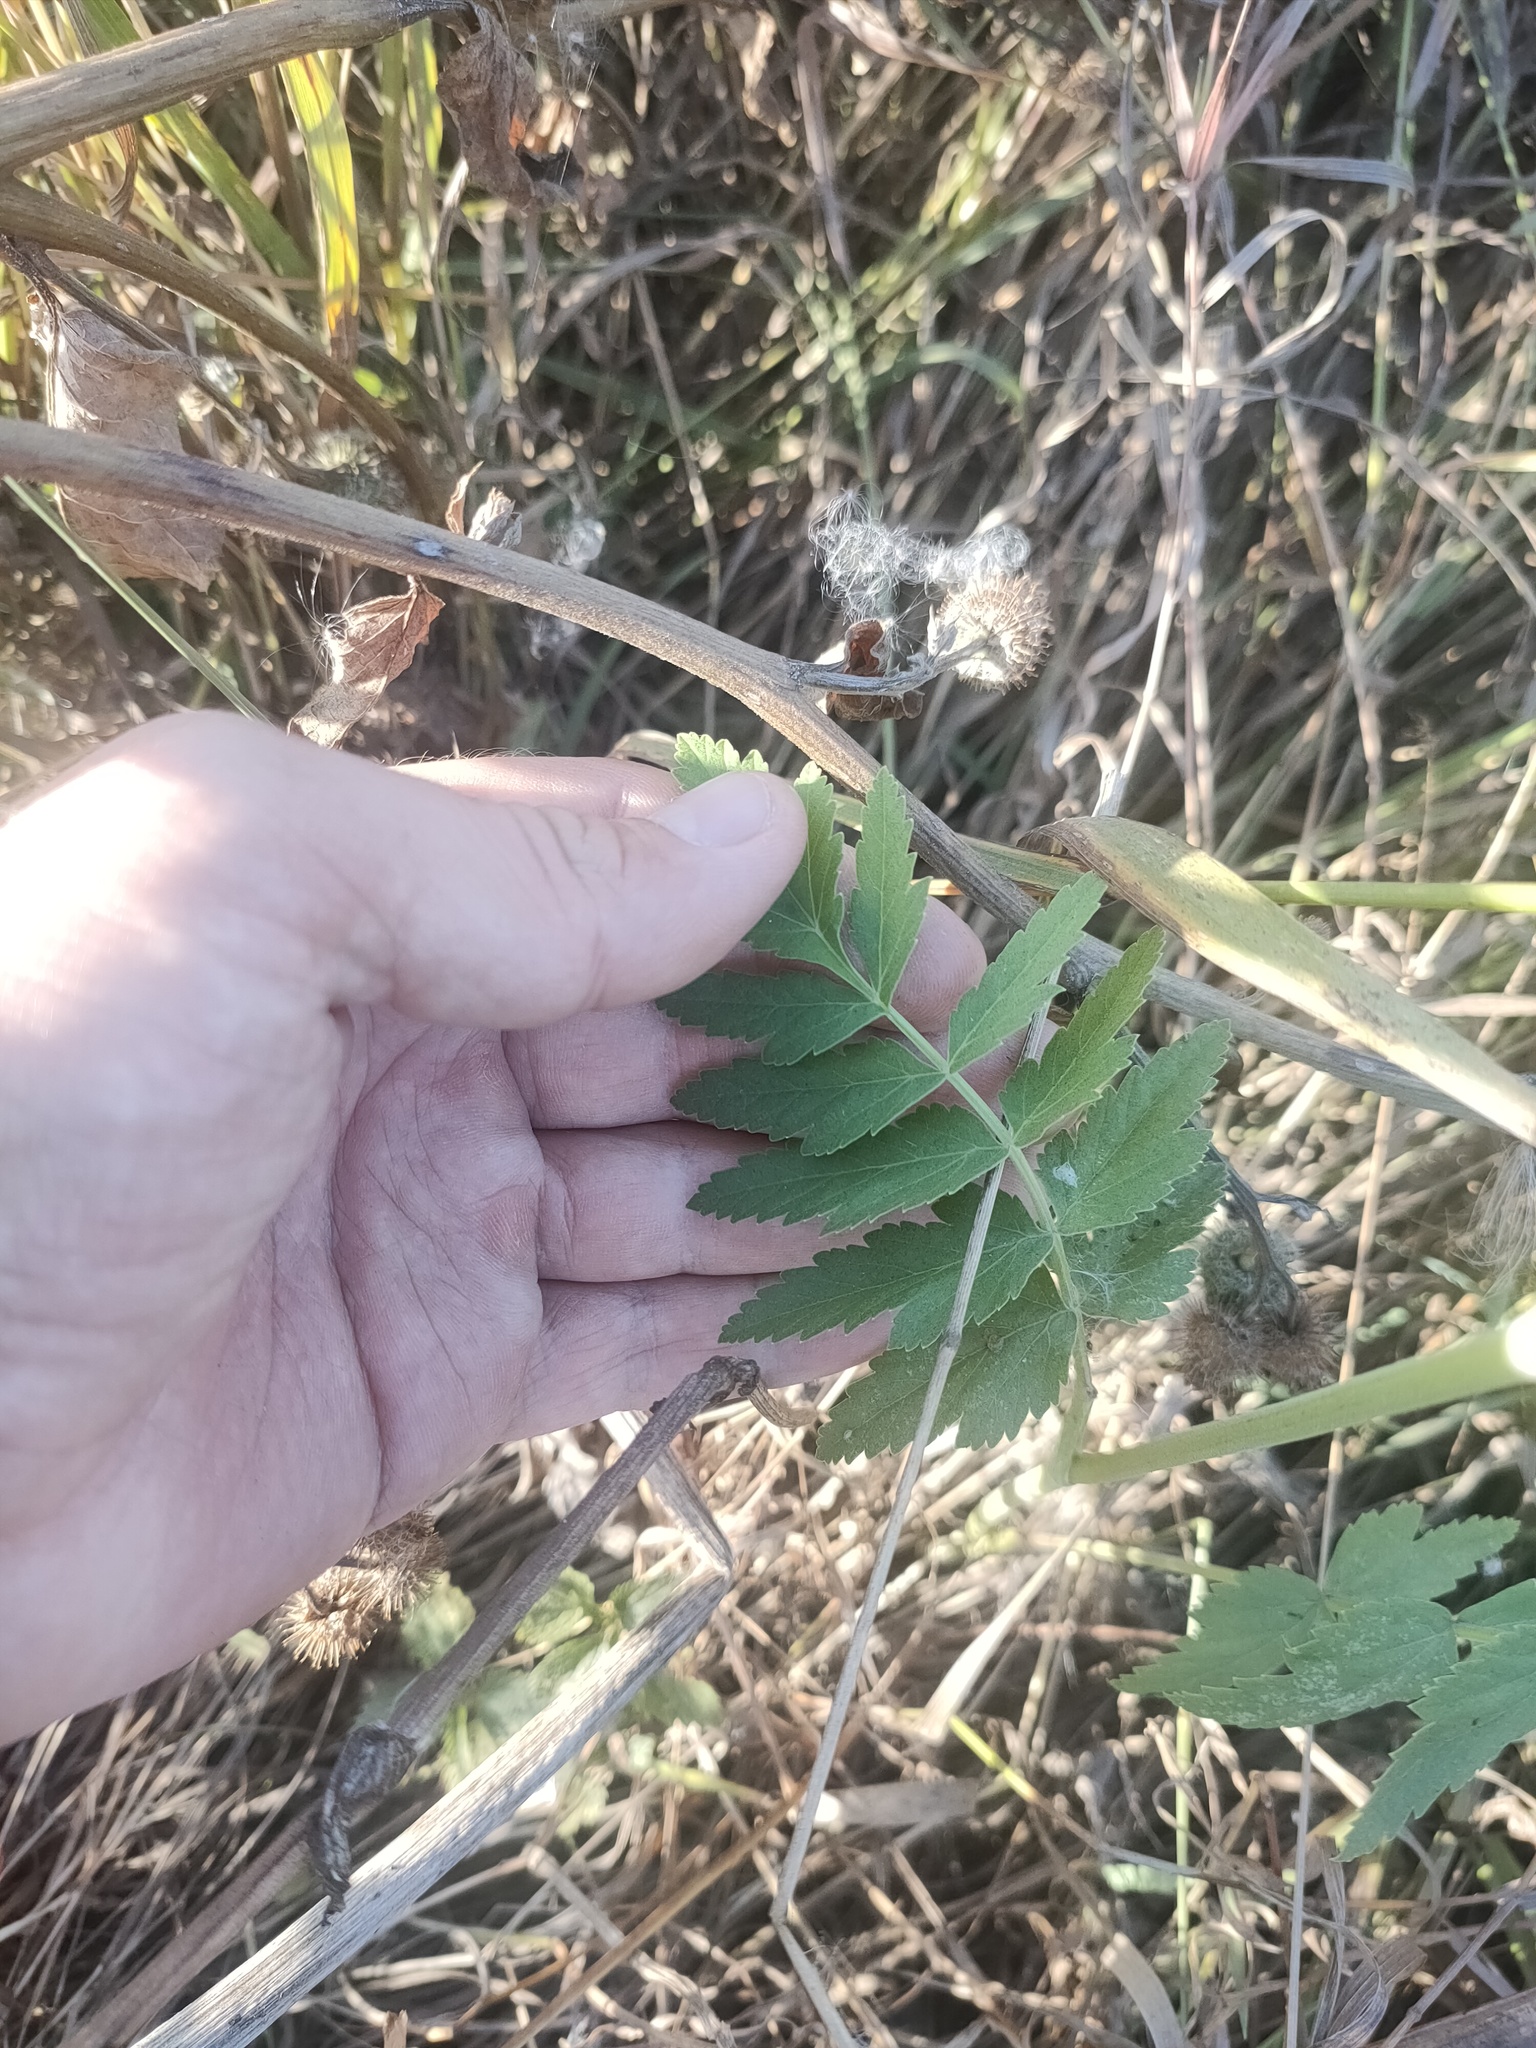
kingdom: Plantae
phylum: Tracheophyta
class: Magnoliopsida
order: Apiales
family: Apiaceae
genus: Pastinaca
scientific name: Pastinaca sativa
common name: Wild parsnip
